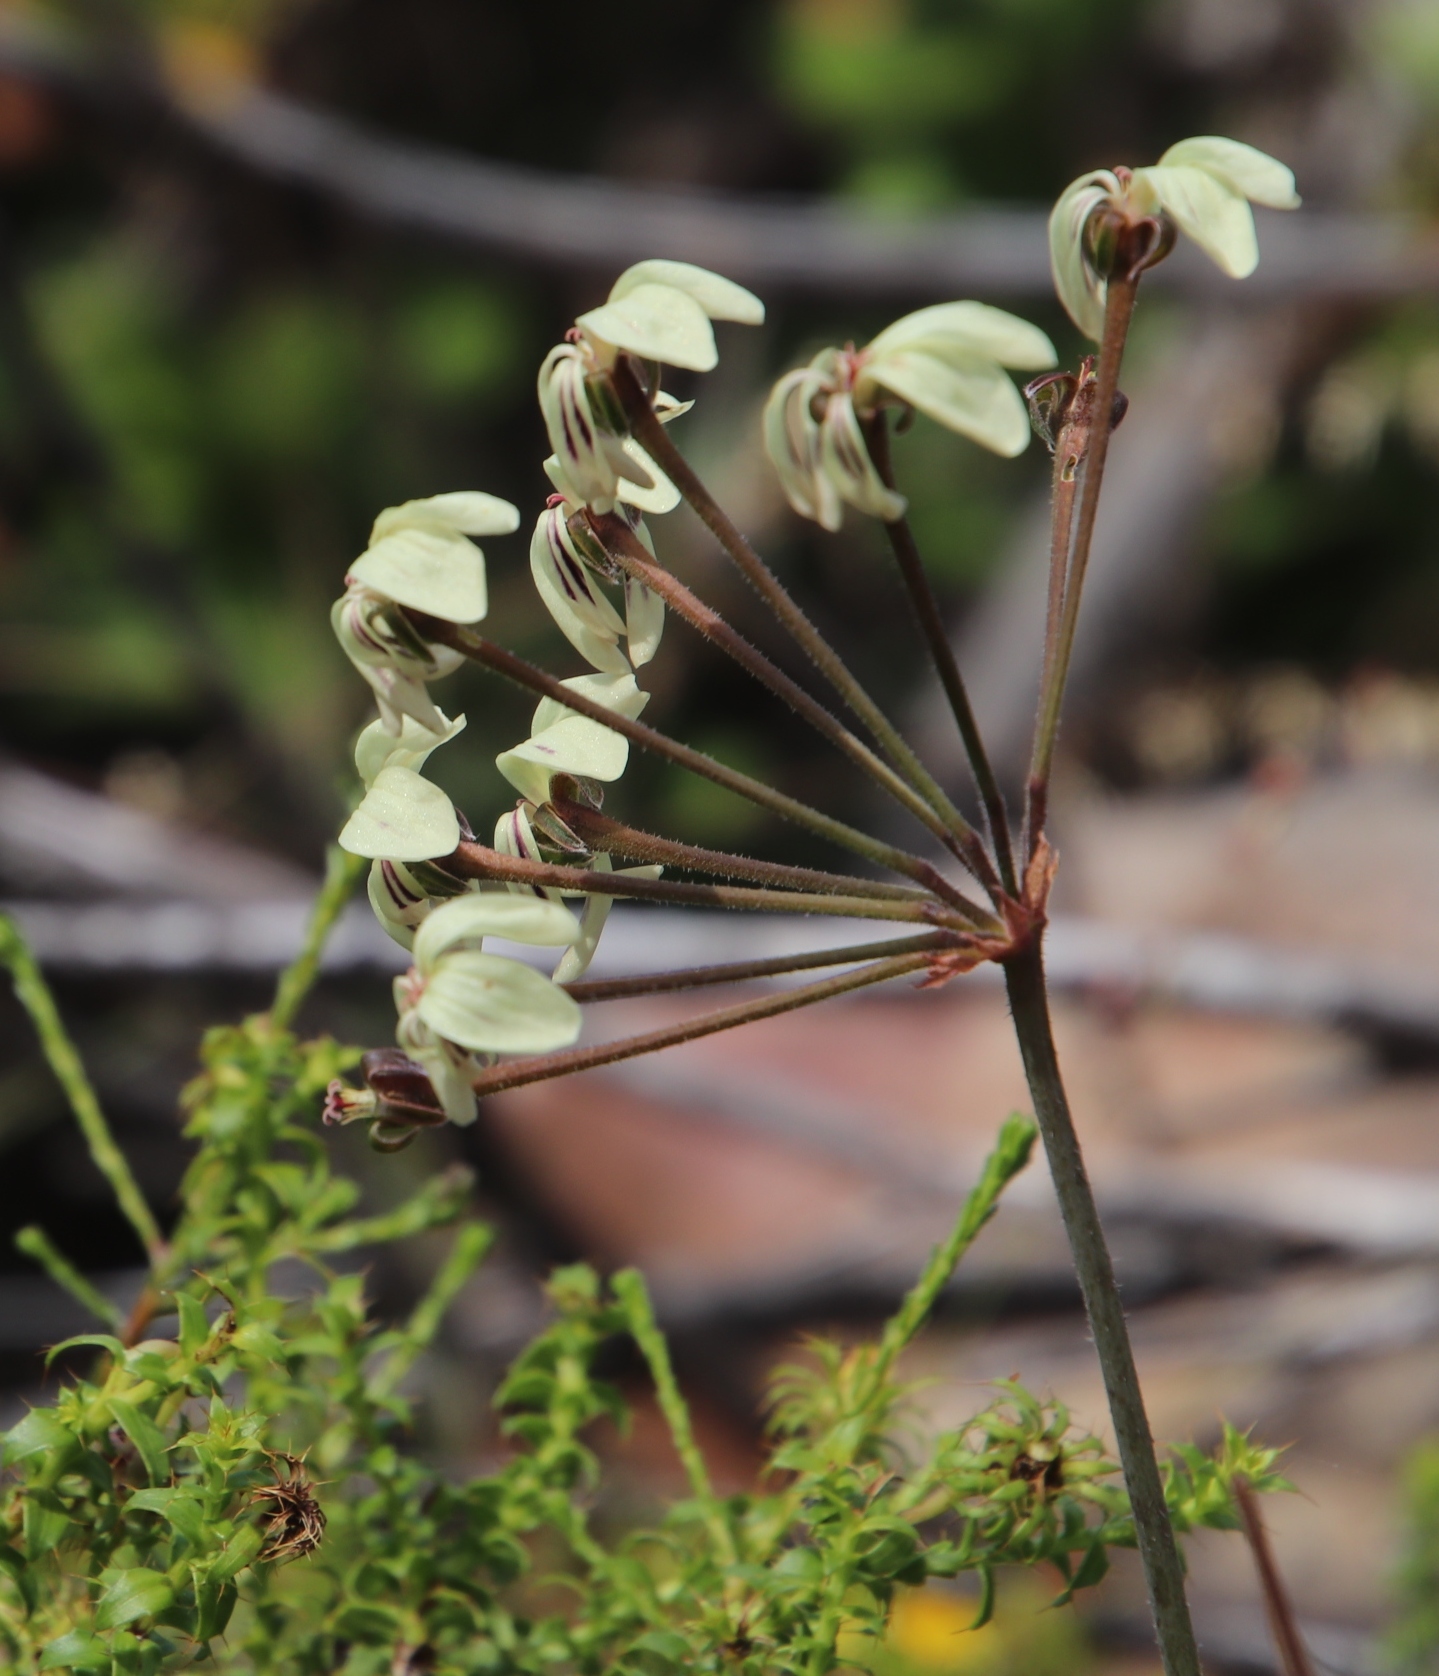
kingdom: Plantae
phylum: Tracheophyta
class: Magnoliopsida
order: Geraniales
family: Geraniaceae
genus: Pelargonium
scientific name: Pelargonium triste
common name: Night-scent pelargonium
